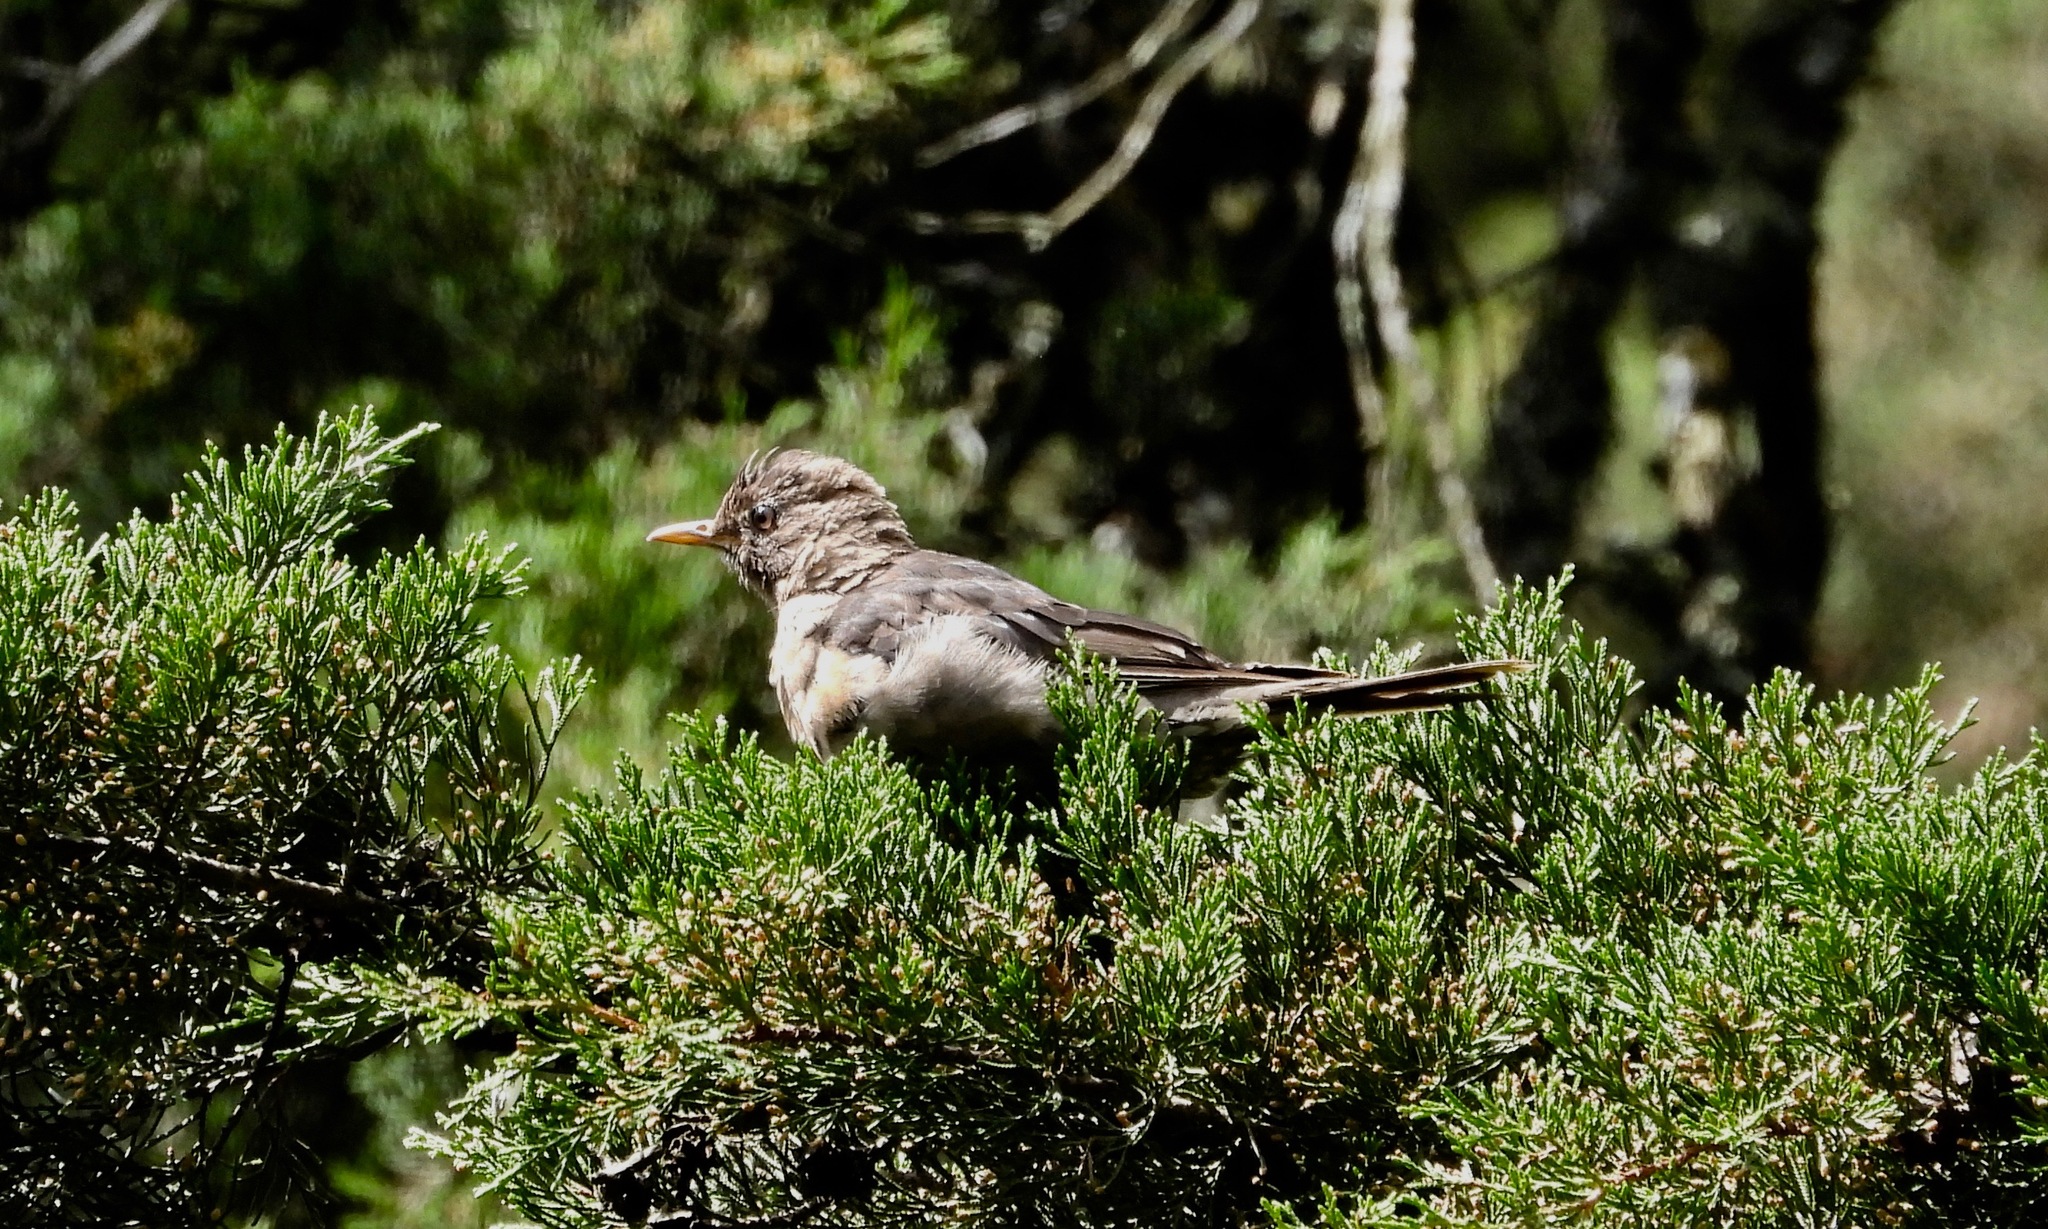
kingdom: Animalia
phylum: Chordata
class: Aves
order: Passeriformes
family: Turdidae
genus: Turdus
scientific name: Turdus rufitorques
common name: Rufous-collared thrush
